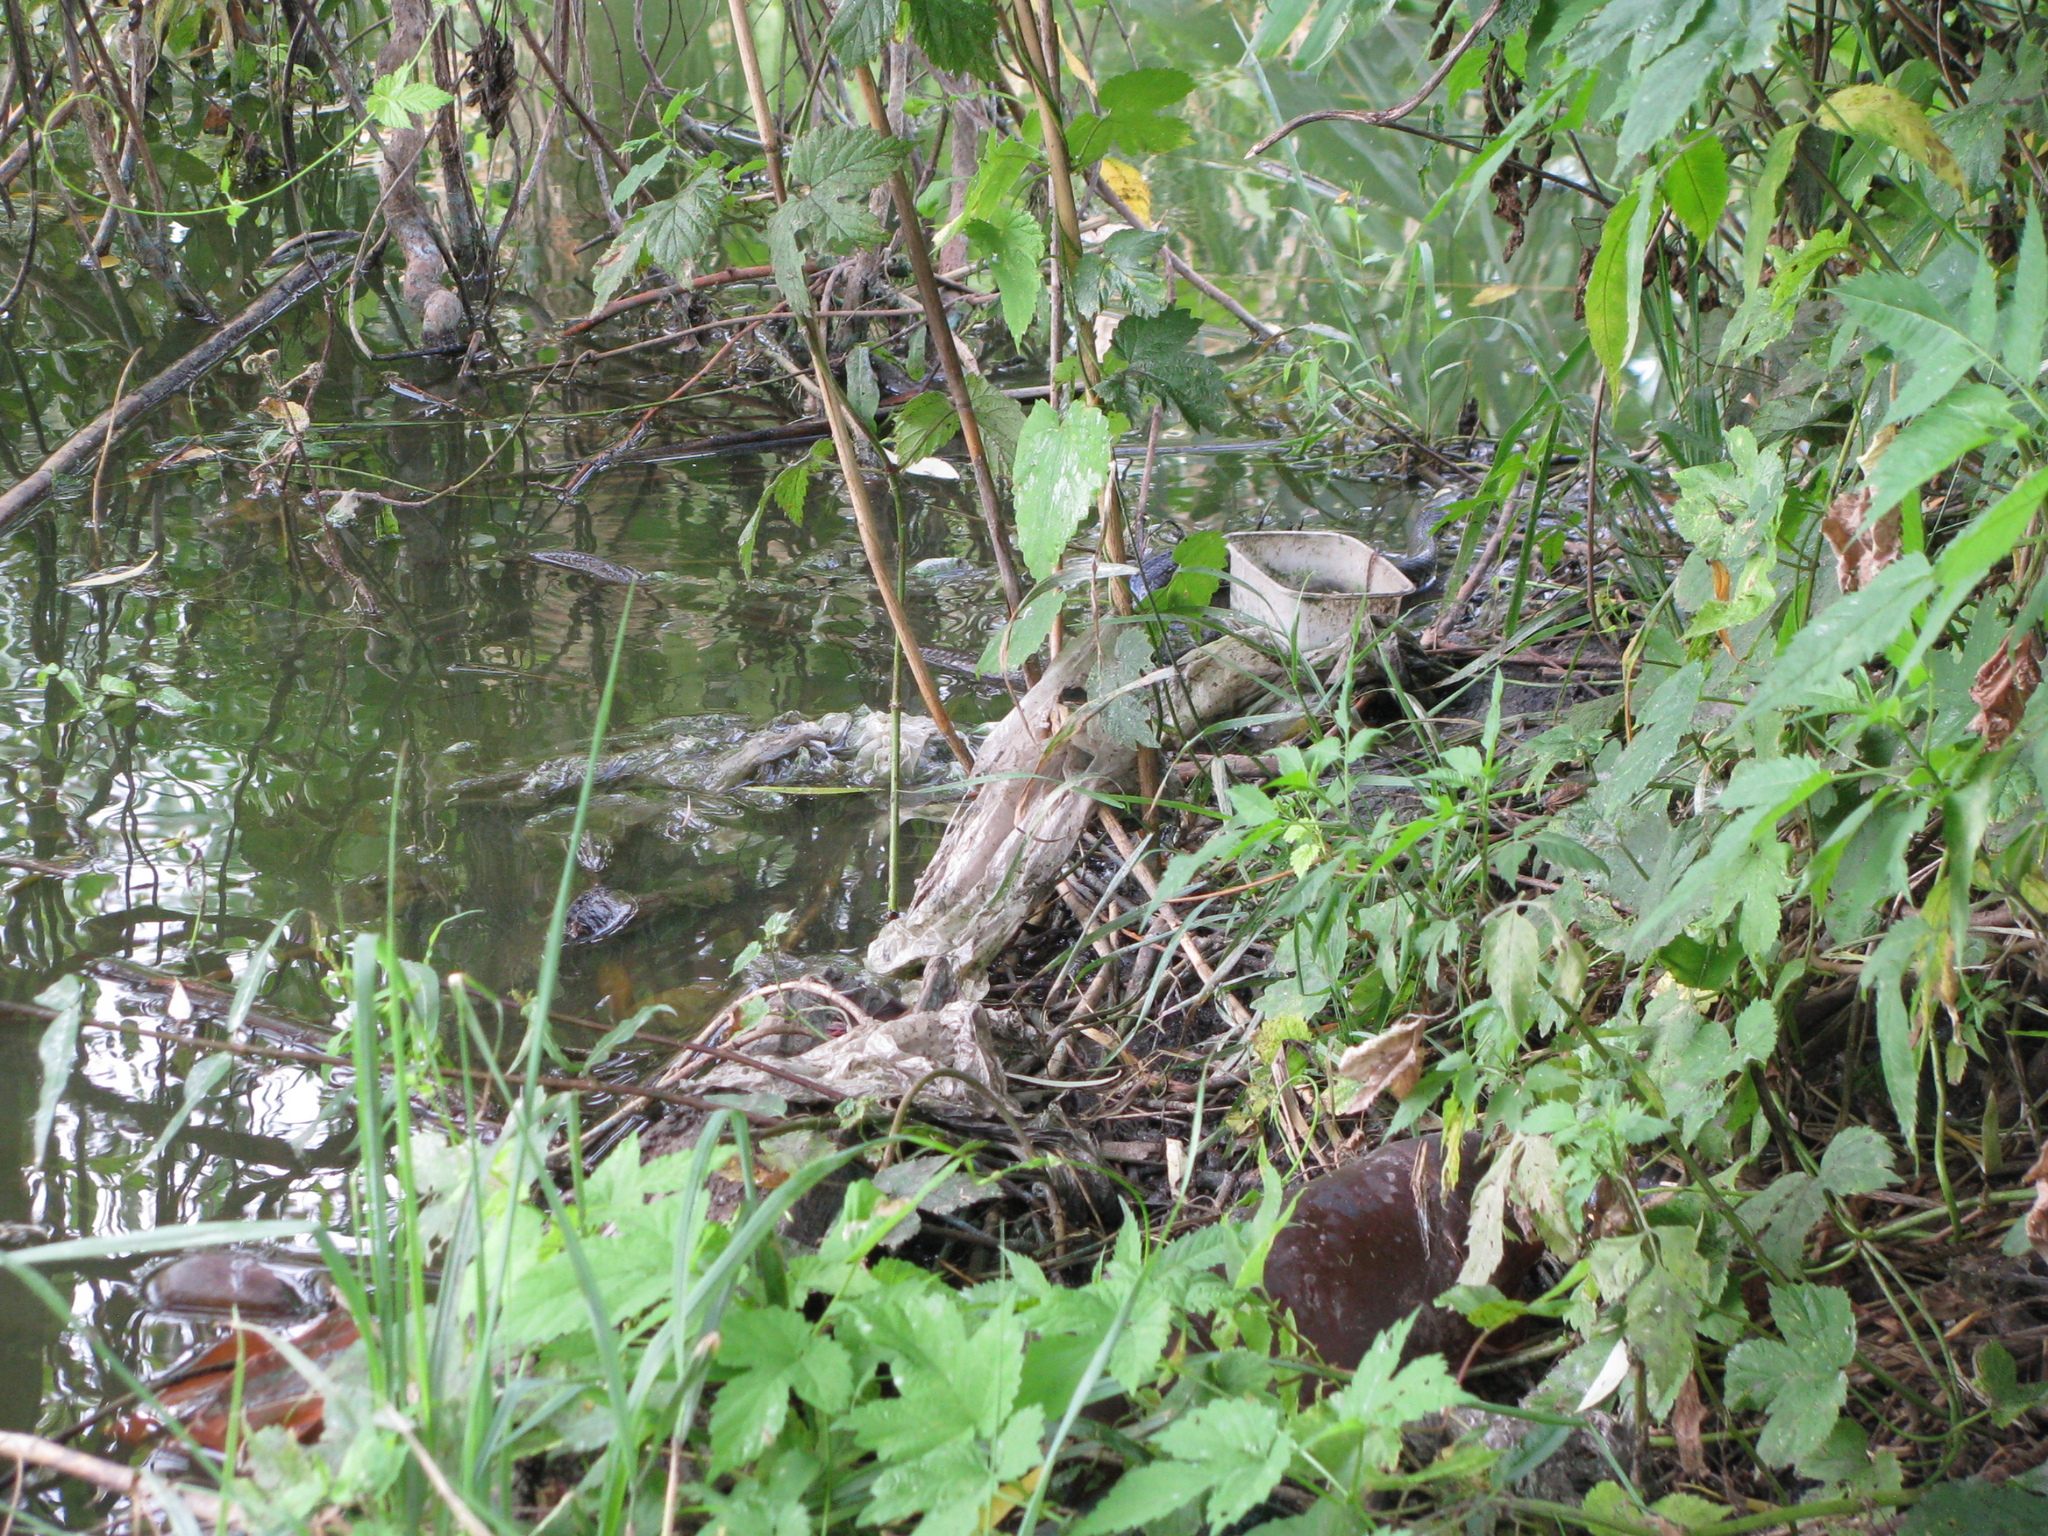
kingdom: Animalia
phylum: Chordata
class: Squamata
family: Colubridae
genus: Natrix
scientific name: Natrix natrix
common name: Grass snake
